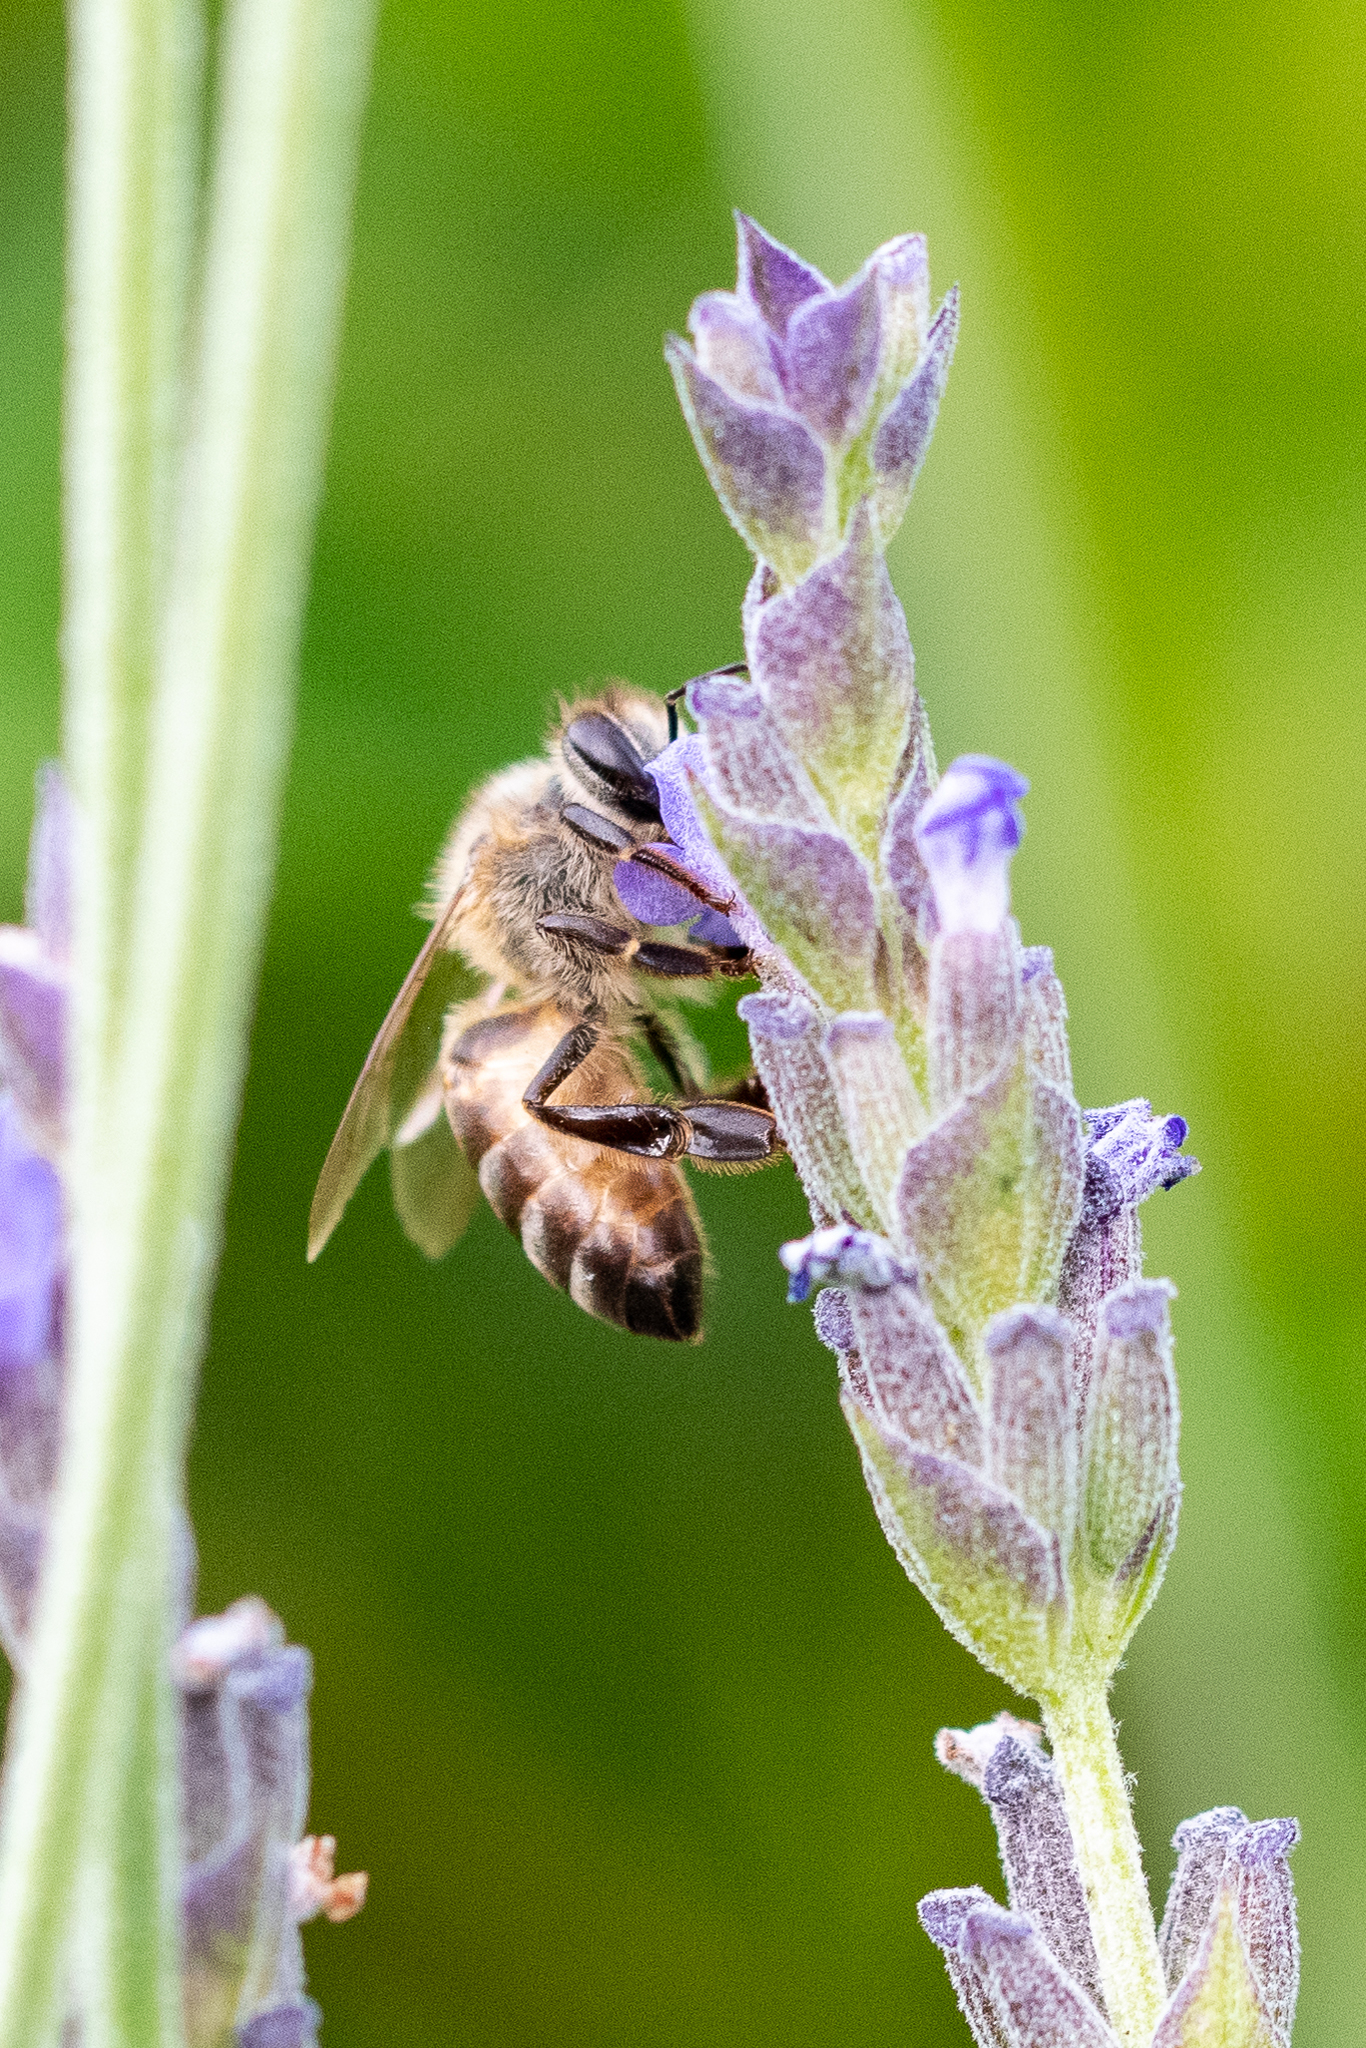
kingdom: Animalia
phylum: Arthropoda
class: Insecta
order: Hymenoptera
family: Apidae
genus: Apis
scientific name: Apis mellifera
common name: Honey bee
